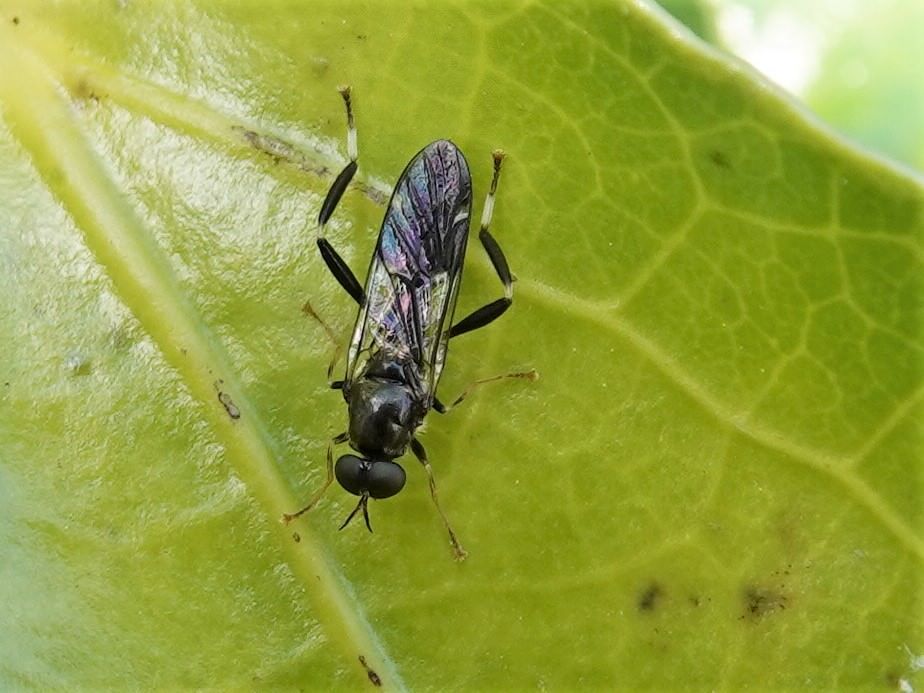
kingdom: Animalia
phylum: Arthropoda
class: Insecta
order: Diptera
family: Stratiomyidae
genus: Exaireta
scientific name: Exaireta spinigera
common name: Blue soldier fly
